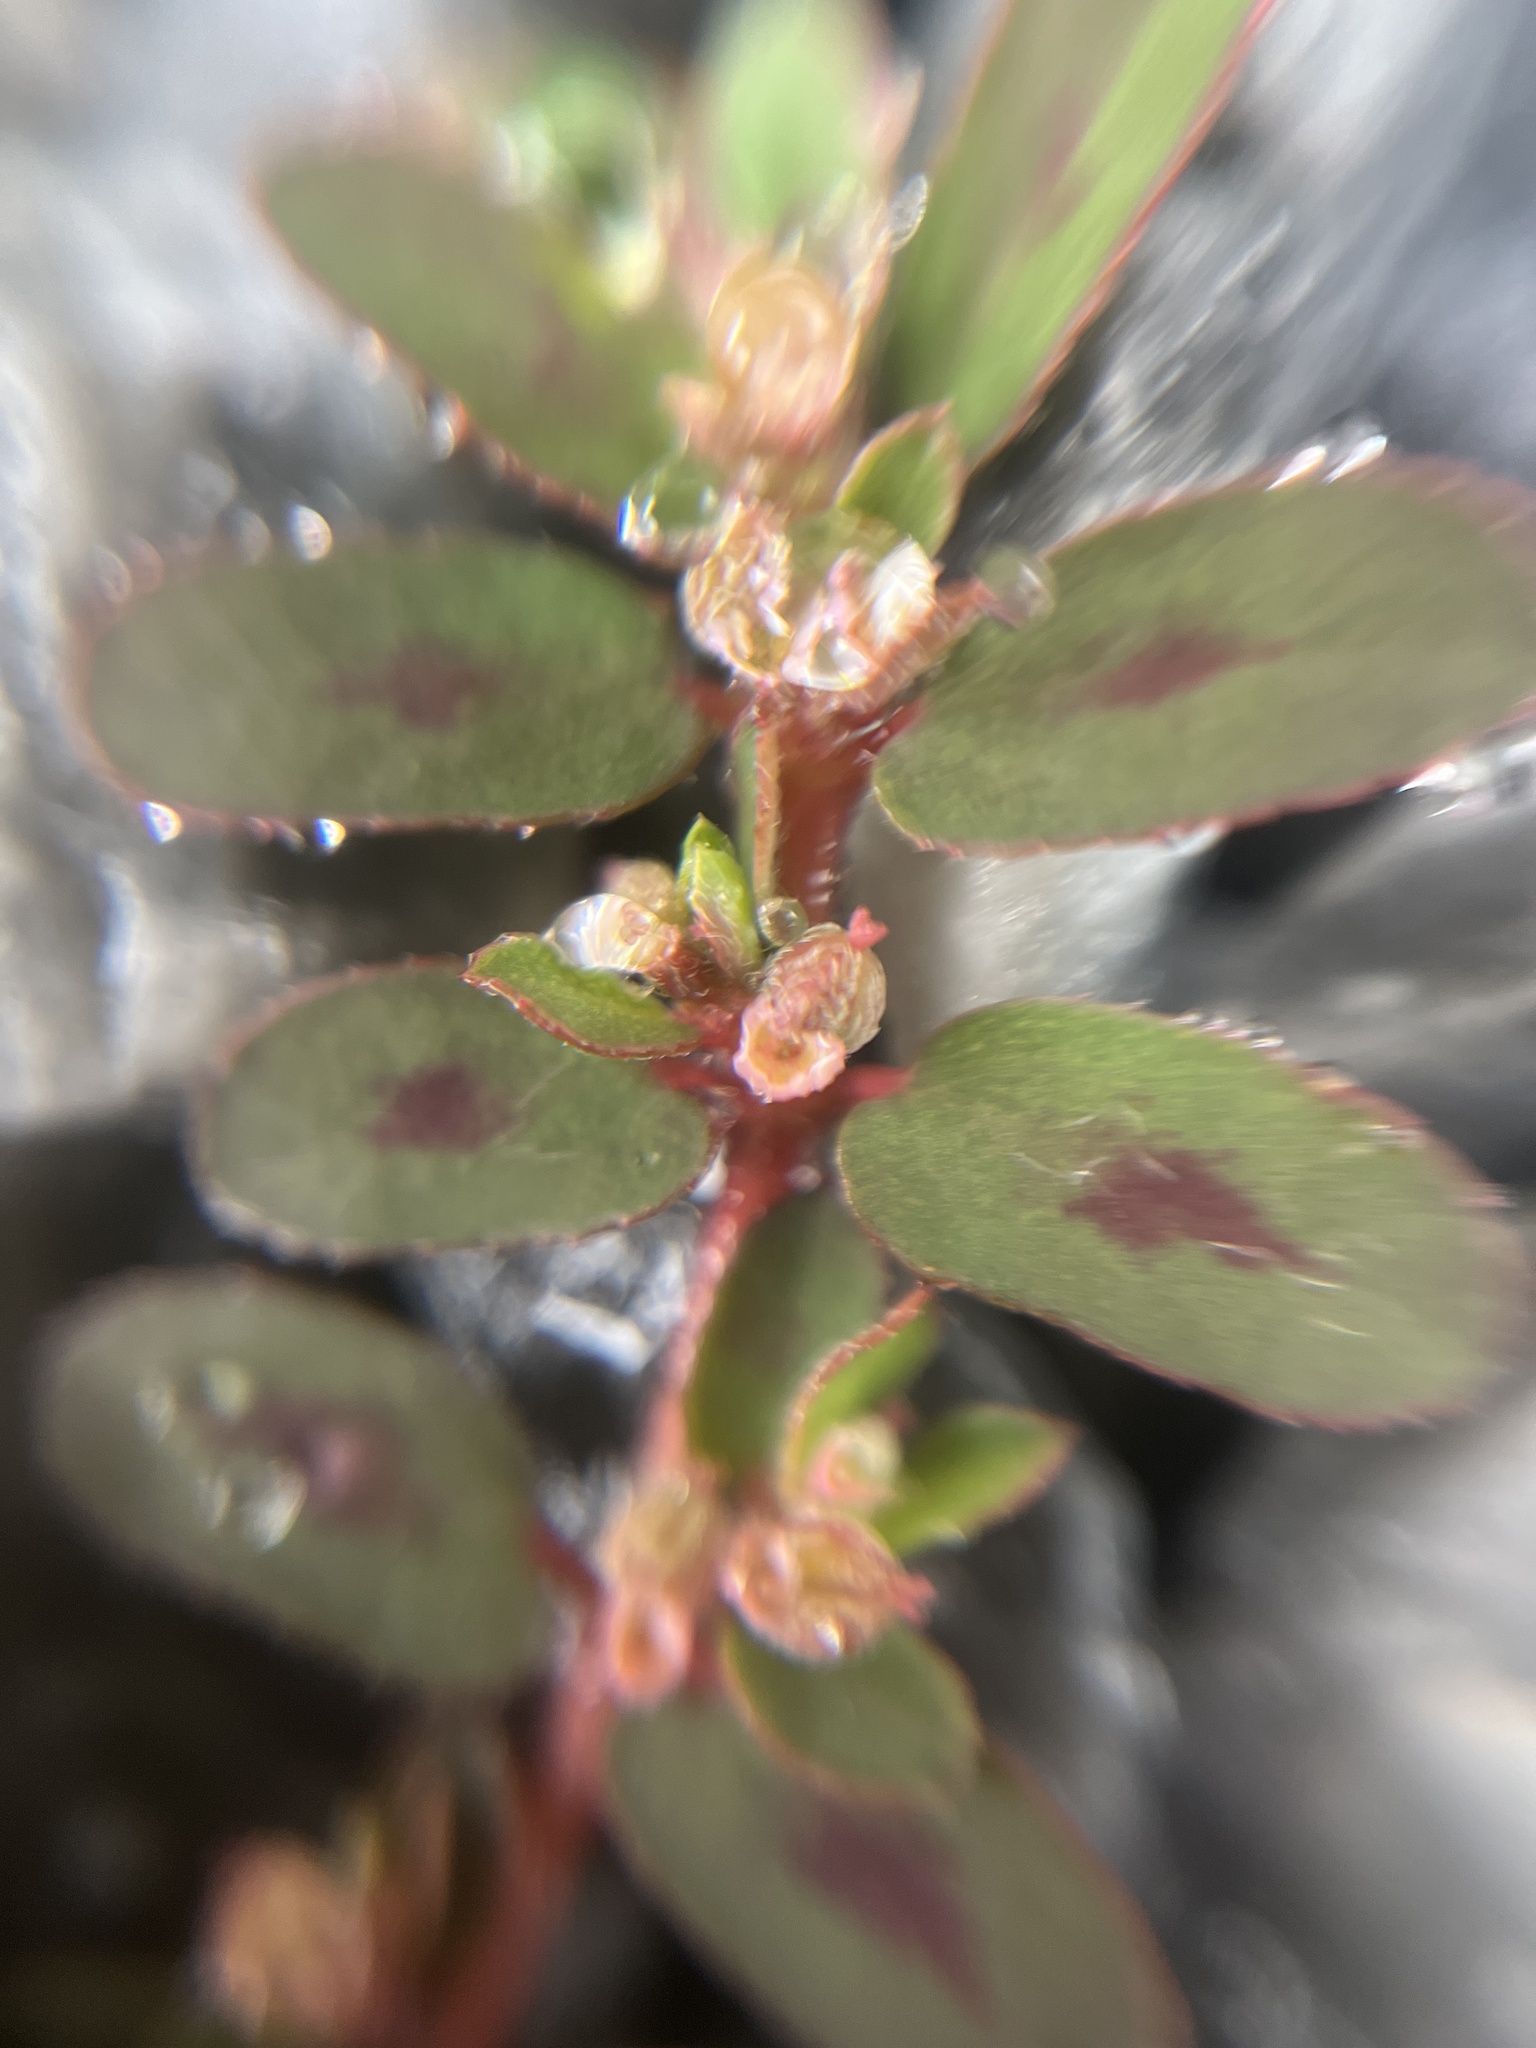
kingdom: Plantae
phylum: Tracheophyta
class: Magnoliopsida
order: Malpighiales
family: Euphorbiaceae
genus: Euphorbia
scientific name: Euphorbia maculata
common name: Spotted spurge
